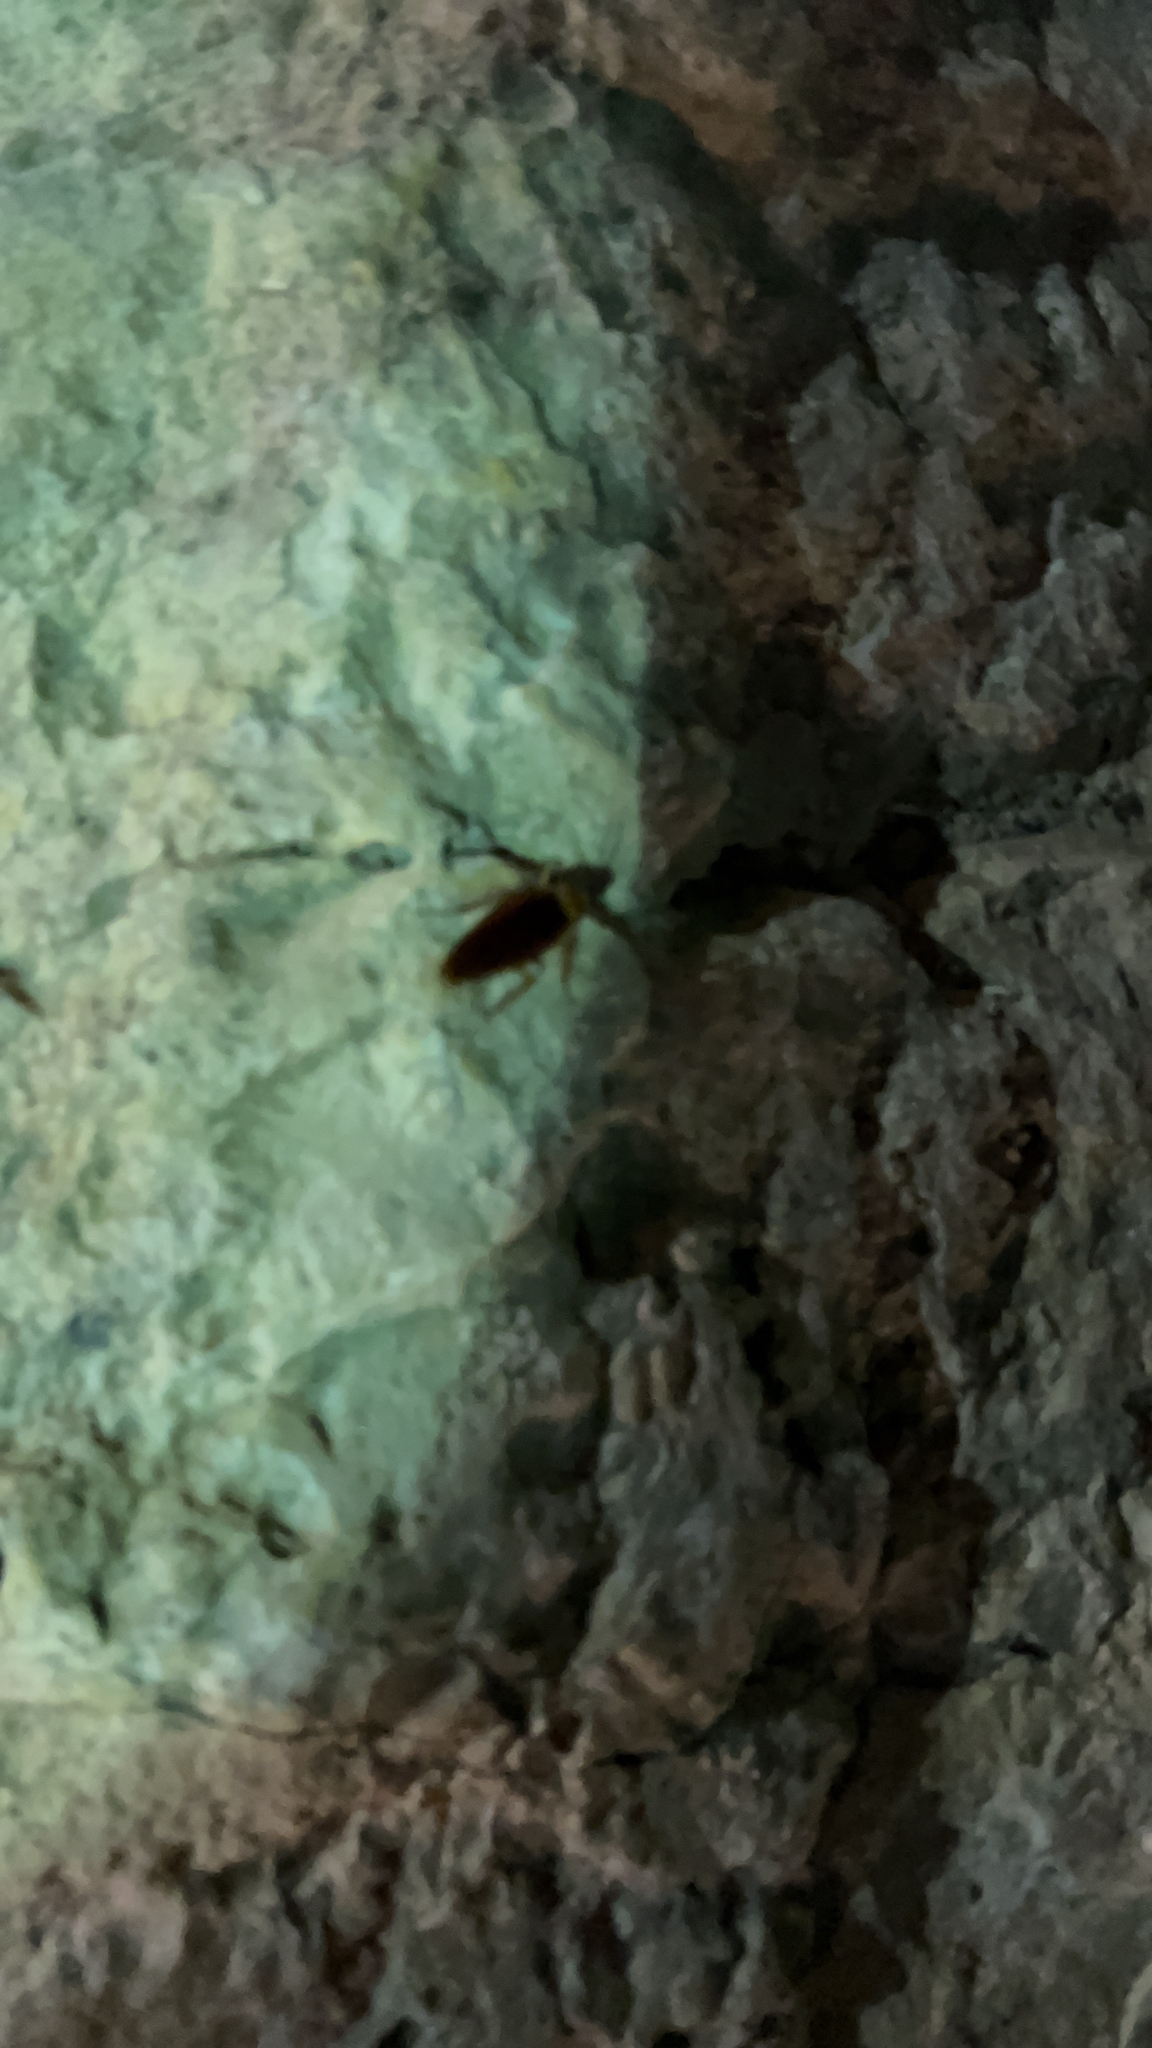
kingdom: Animalia
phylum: Arthropoda
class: Insecta
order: Blattodea
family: Blattidae
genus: Periplaneta
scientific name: Periplaneta americana
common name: American cockroach
